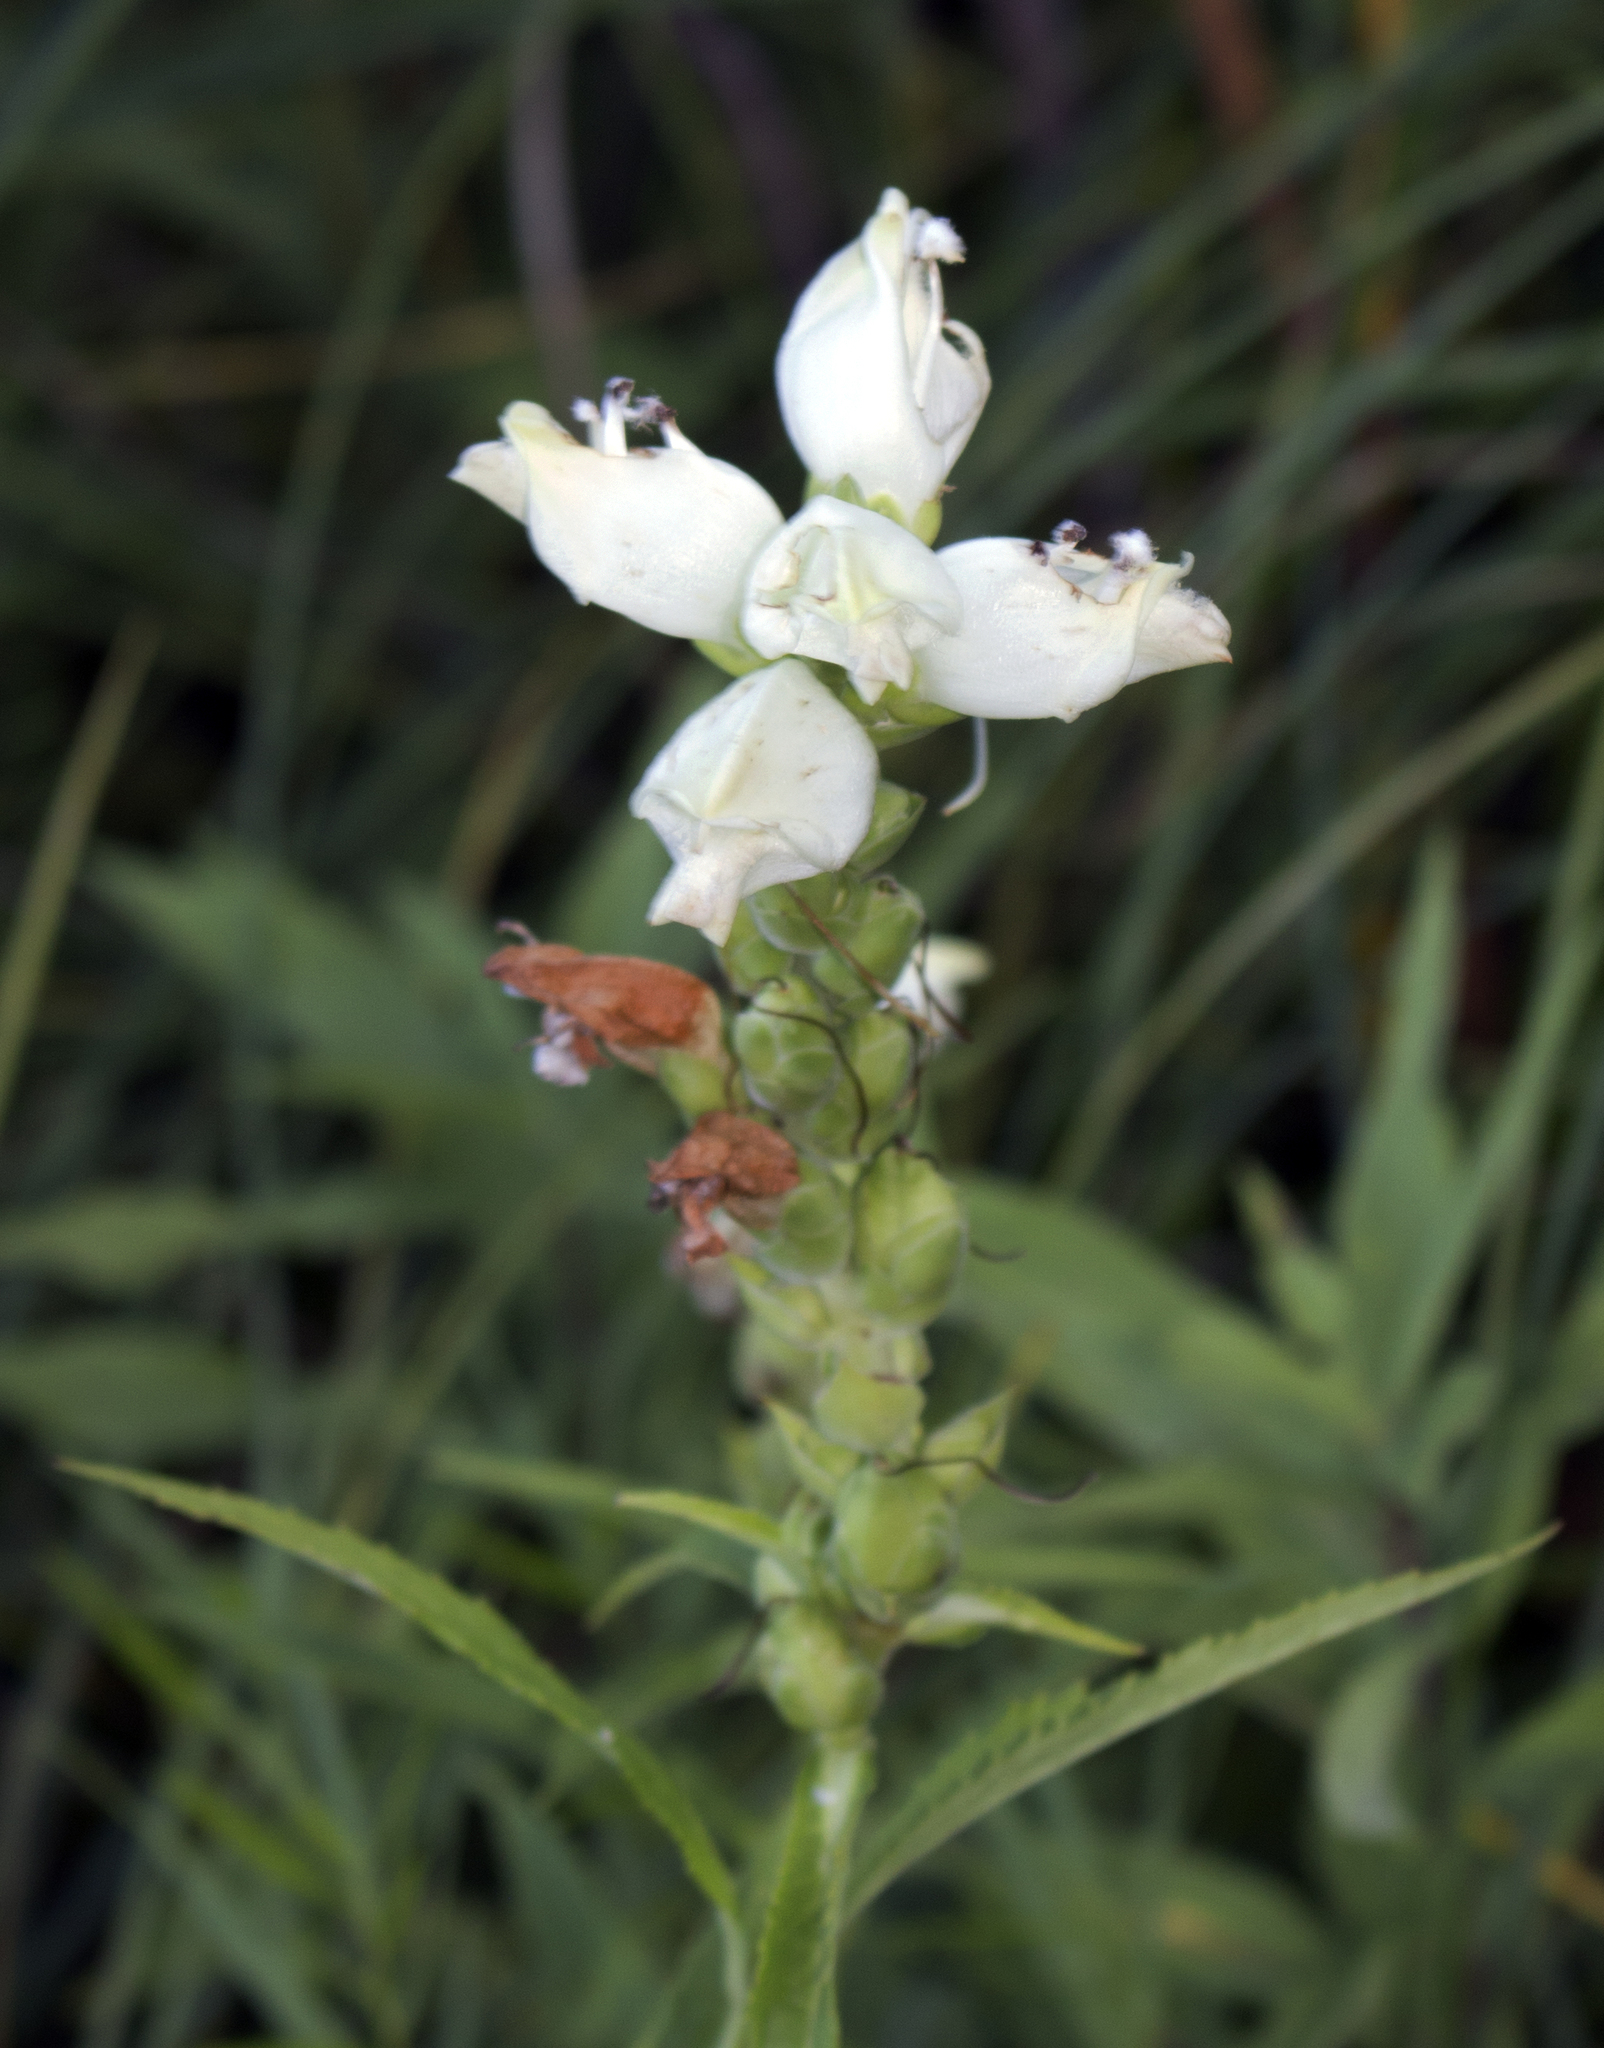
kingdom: Plantae
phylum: Tracheophyta
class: Magnoliopsida
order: Lamiales
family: Plantaginaceae
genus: Chelone
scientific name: Chelone glabra
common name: Snakehead
